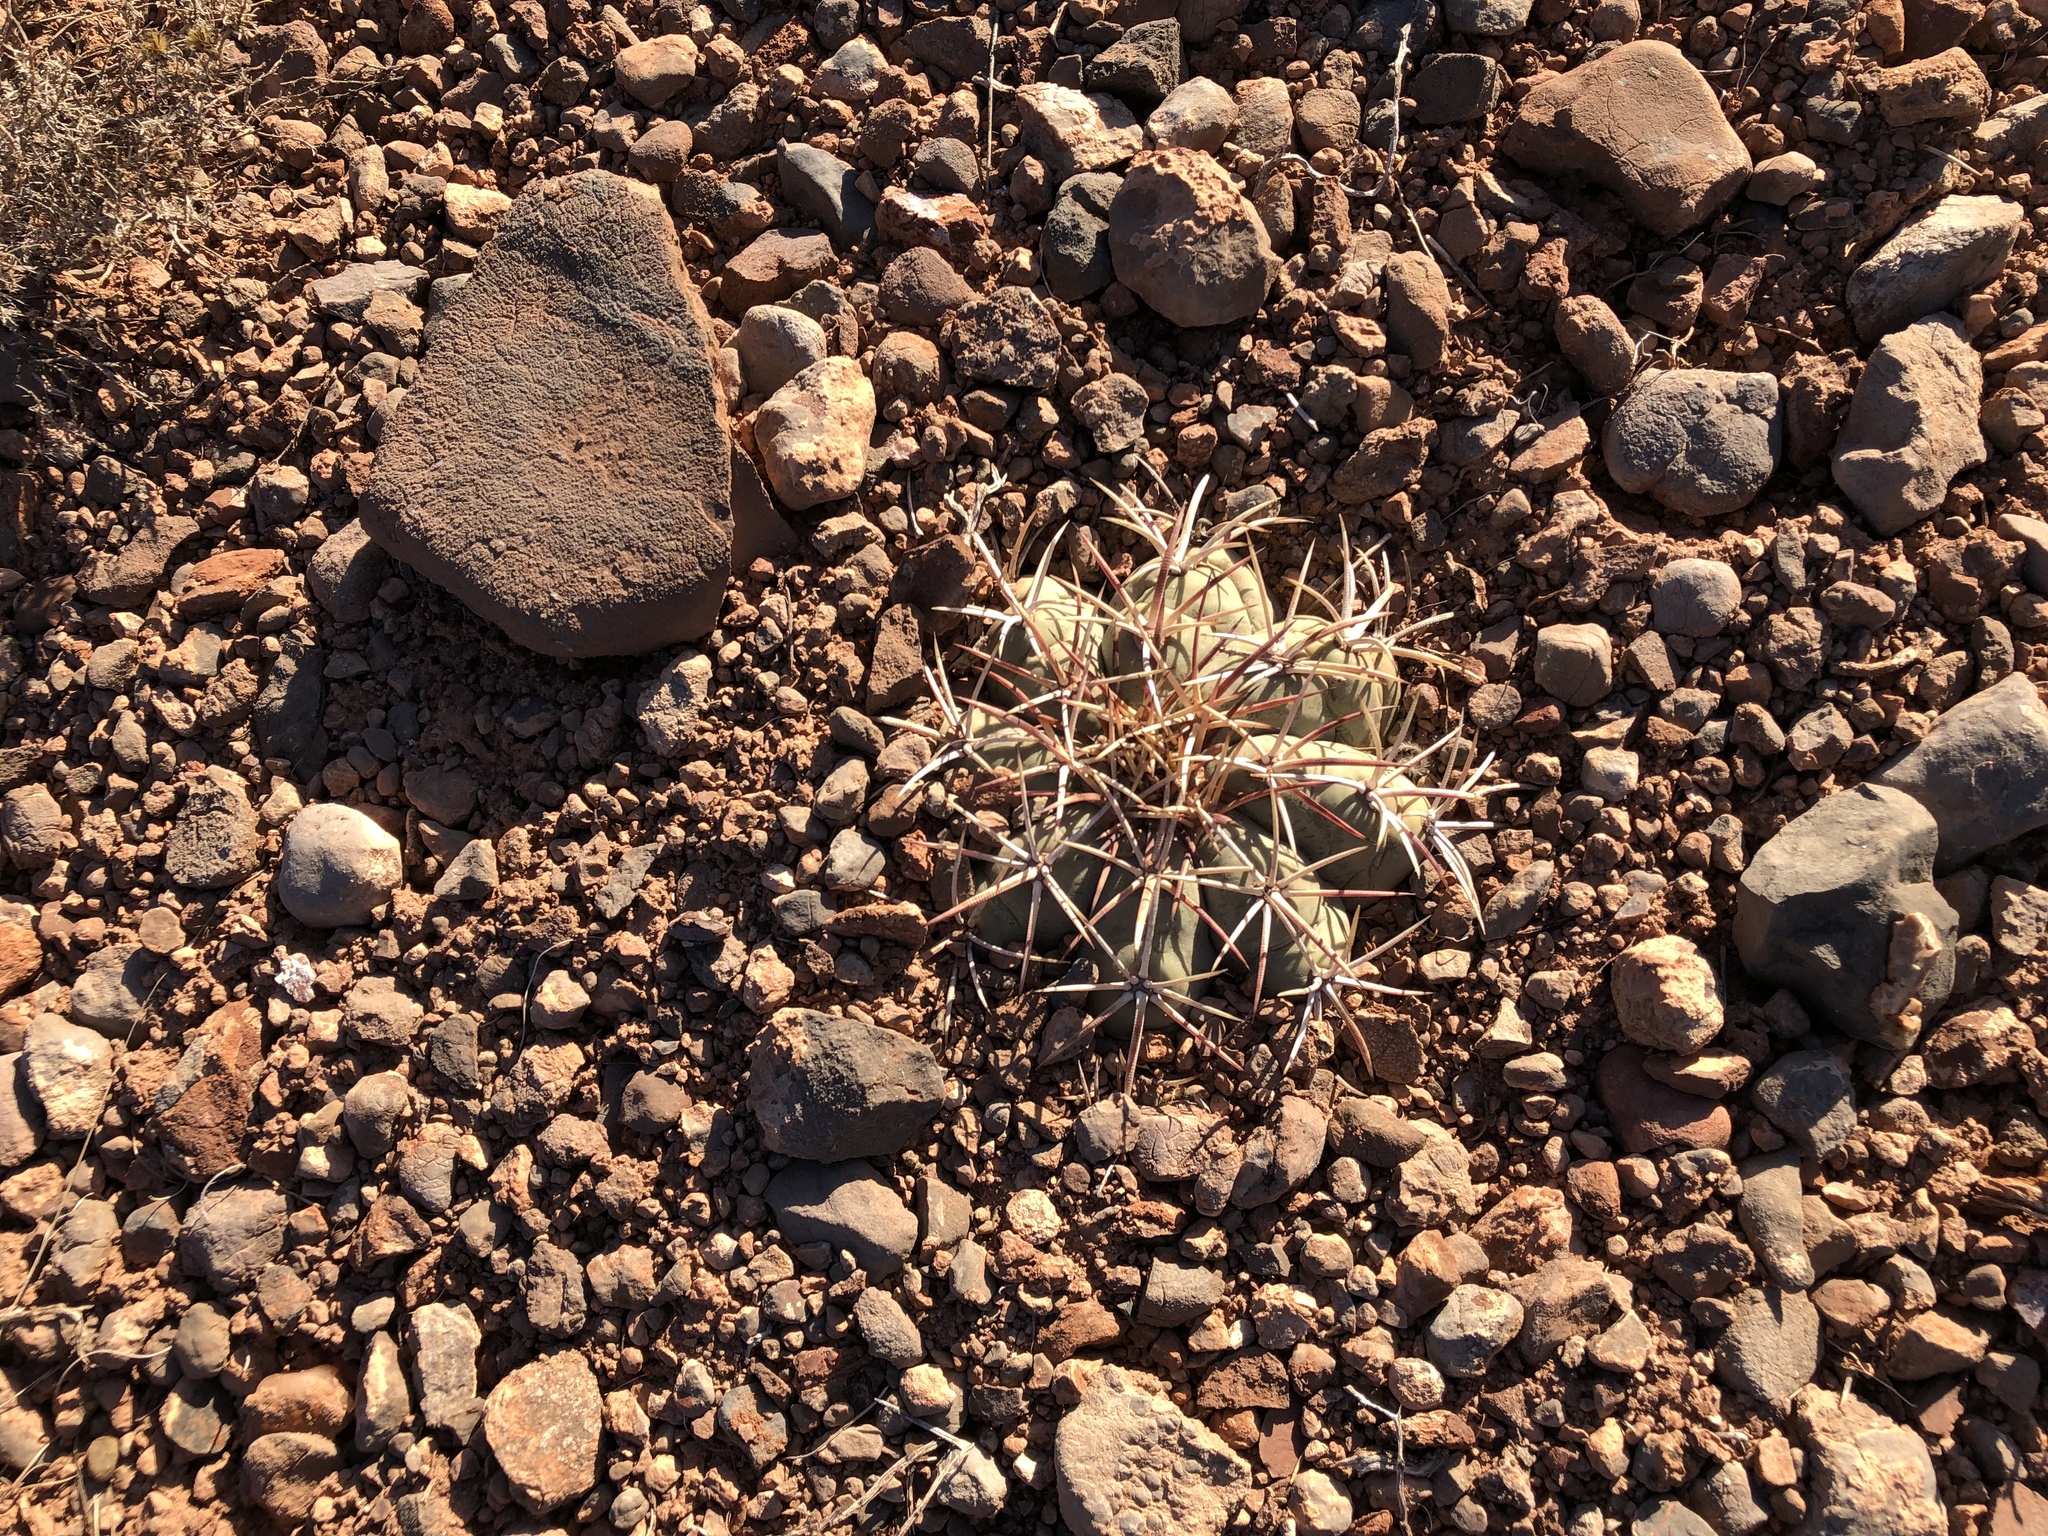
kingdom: Plantae
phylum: Tracheophyta
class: Magnoliopsida
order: Caryophyllales
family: Cactaceae
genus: Echinocactus
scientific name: Echinocactus horizonthalonius
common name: Devilshead
